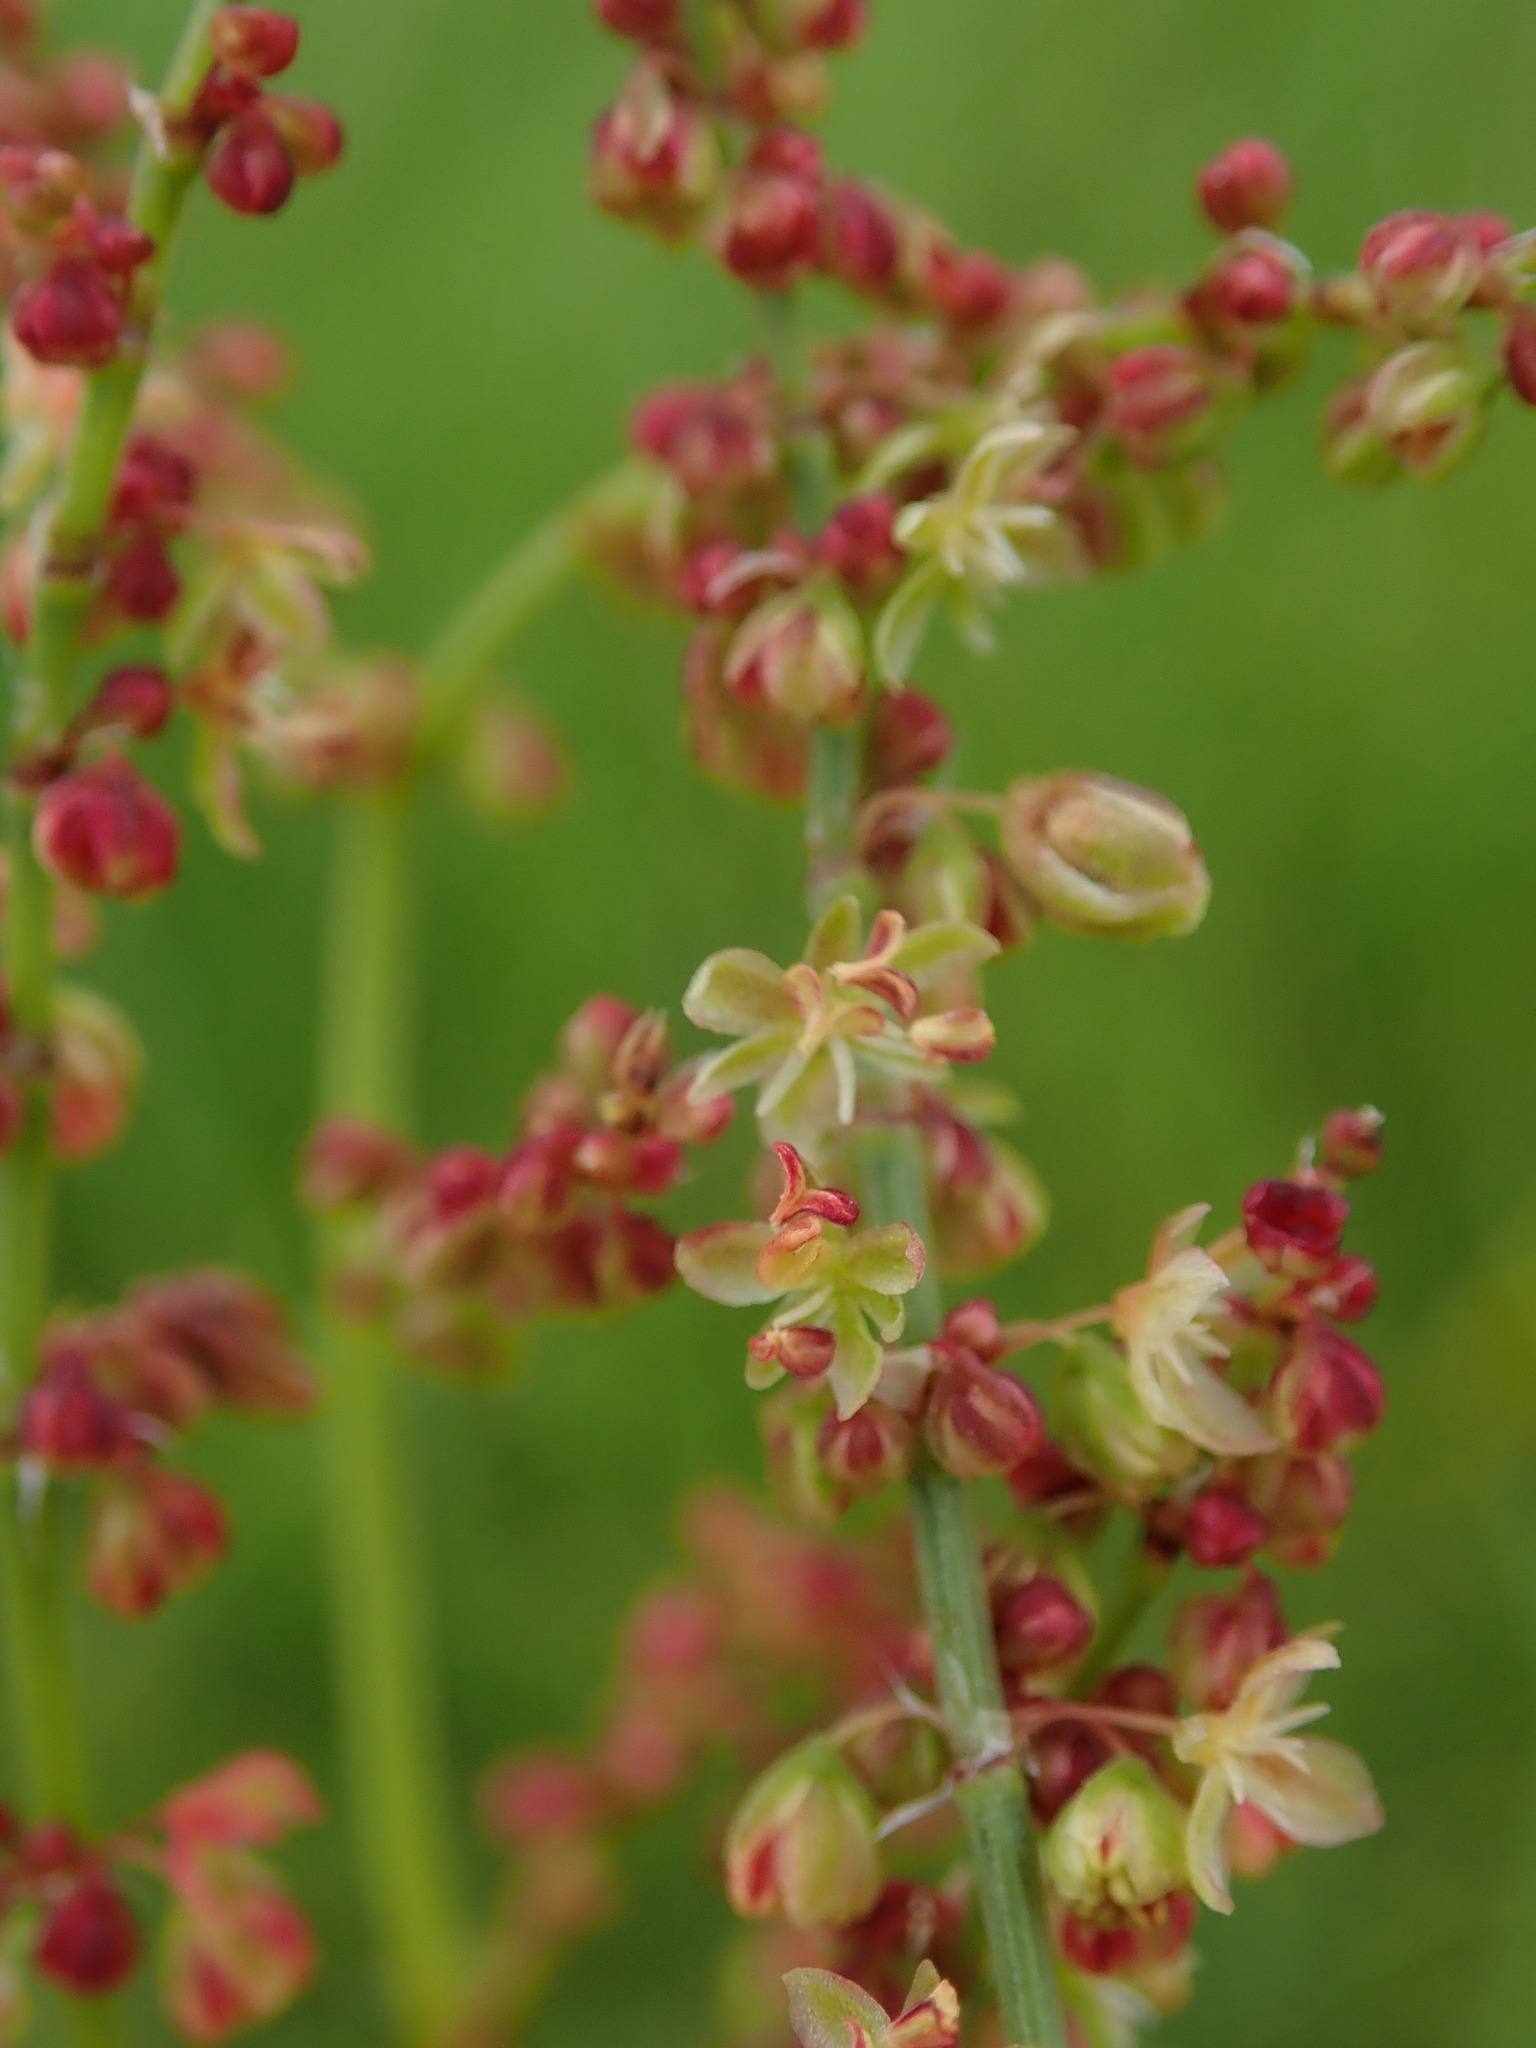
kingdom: Plantae
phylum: Tracheophyta
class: Magnoliopsida
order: Caryophyllales
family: Polygonaceae
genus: Rumex
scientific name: Rumex acetosella
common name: Common sheep sorrel
